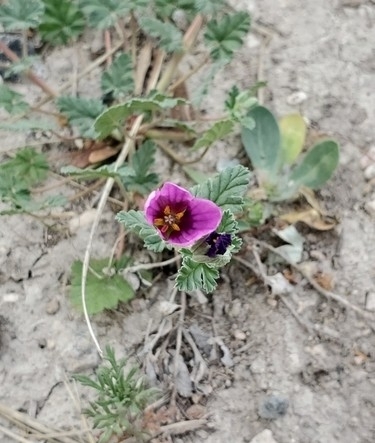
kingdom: Plantae
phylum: Tracheophyta
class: Magnoliopsida
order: Geraniales
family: Geraniaceae
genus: Erodium
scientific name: Erodium texanum
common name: Texas stork's-bill
